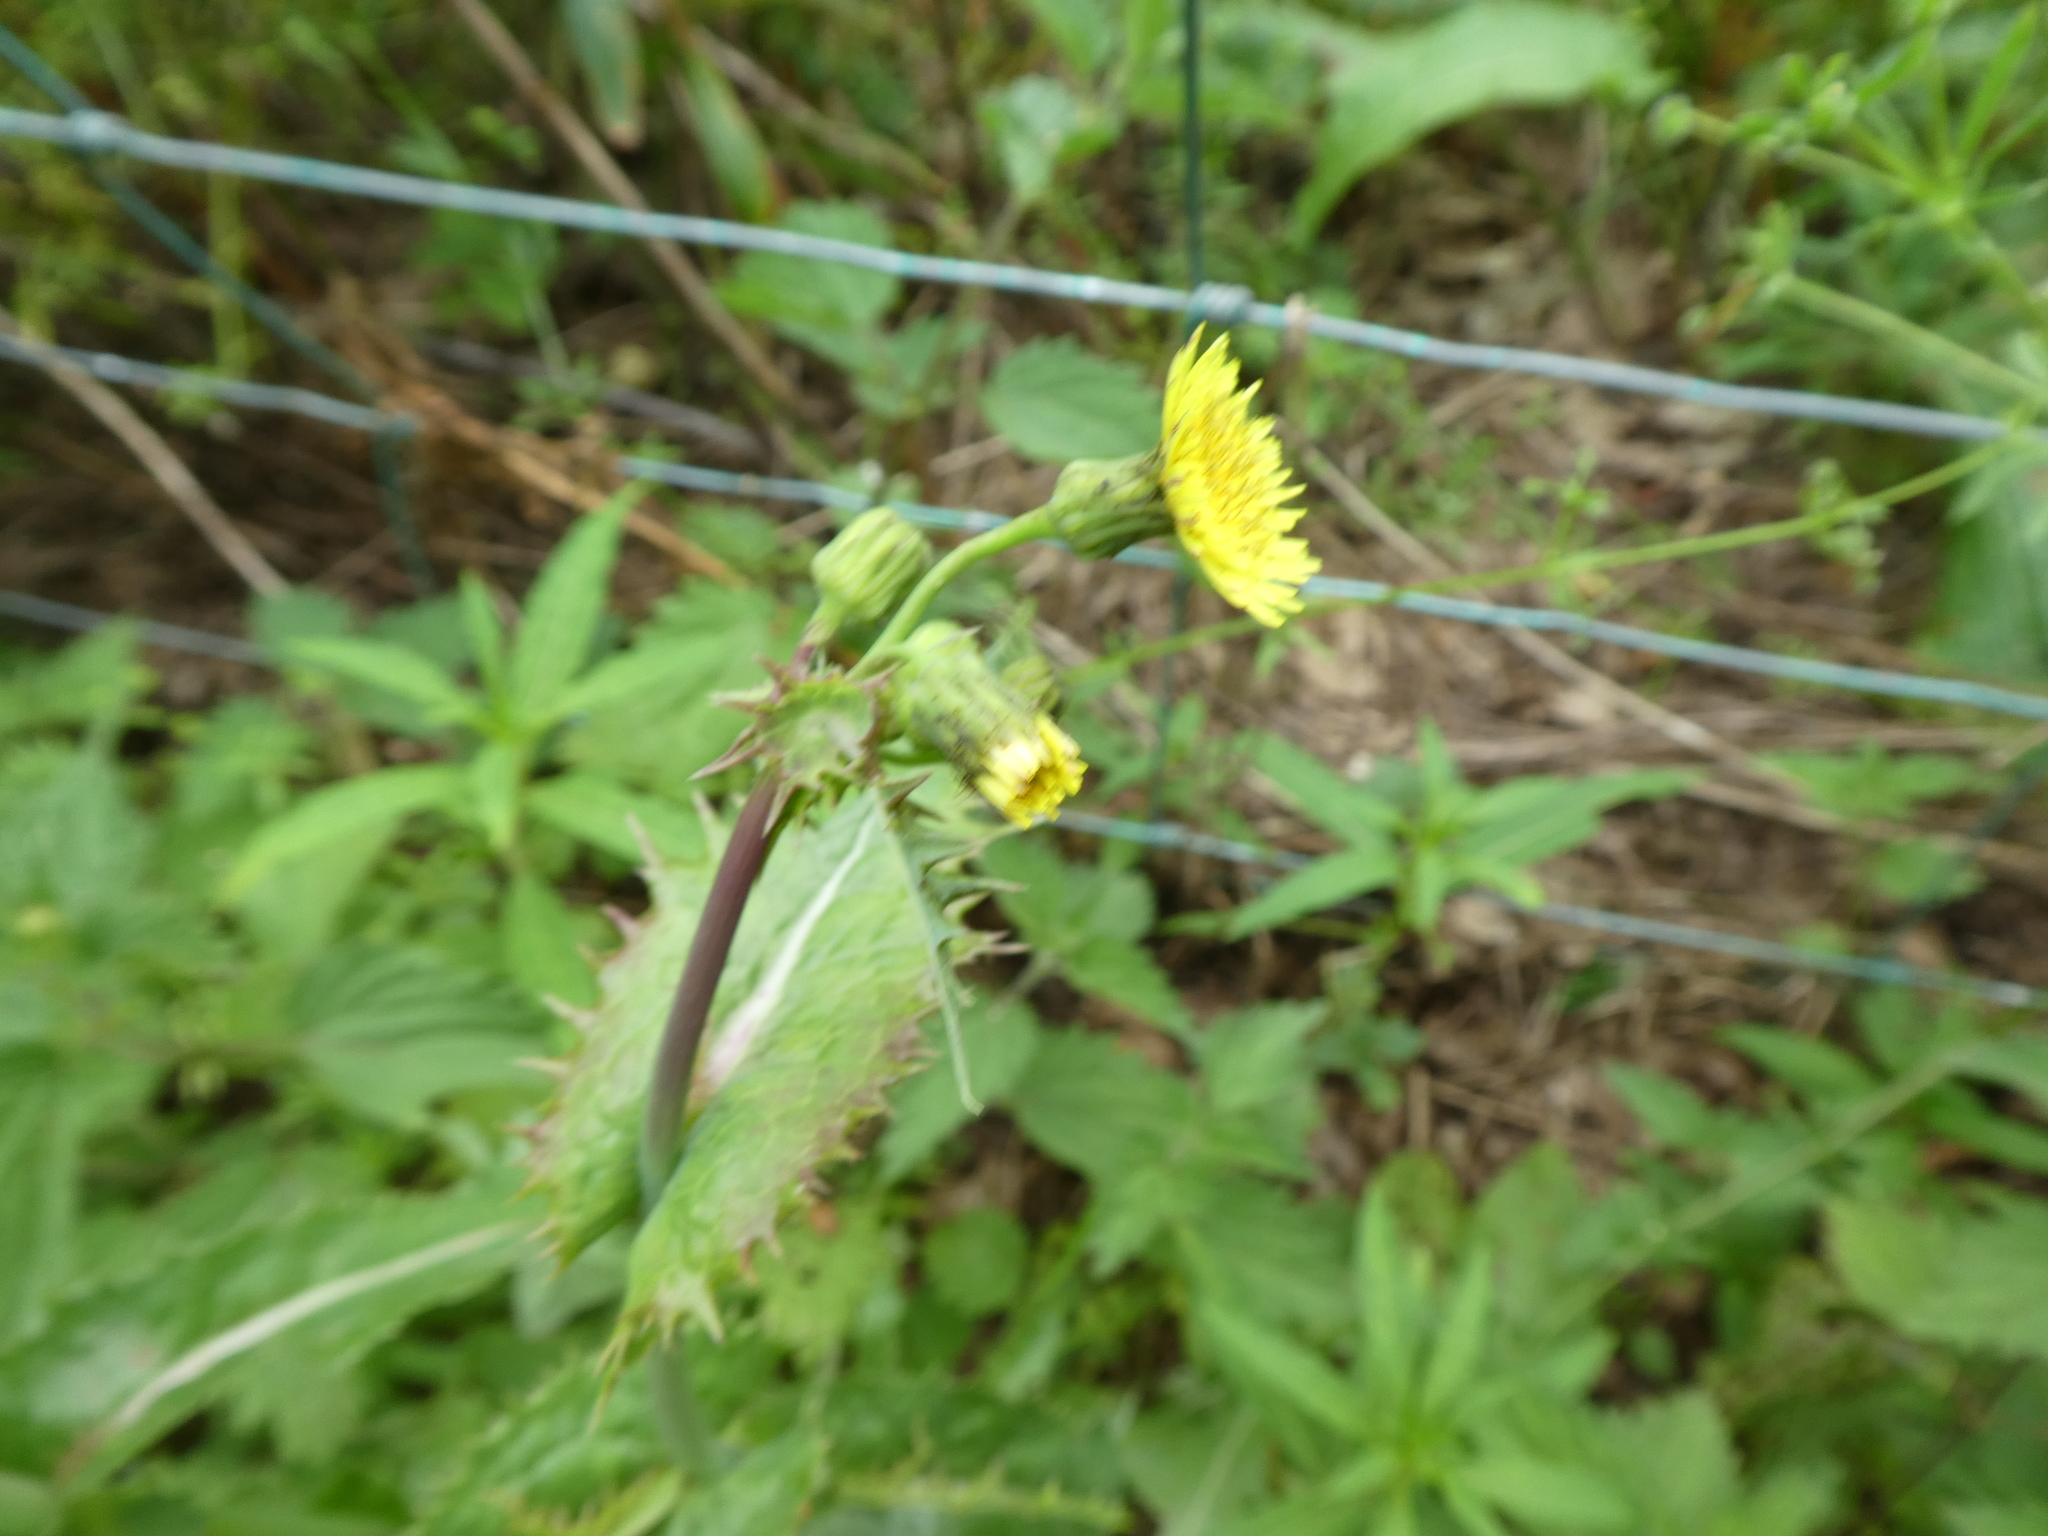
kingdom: Plantae
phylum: Tracheophyta
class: Magnoliopsida
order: Asterales
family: Asteraceae
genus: Sonchus
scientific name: Sonchus asper
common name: Prickly sow-thistle
